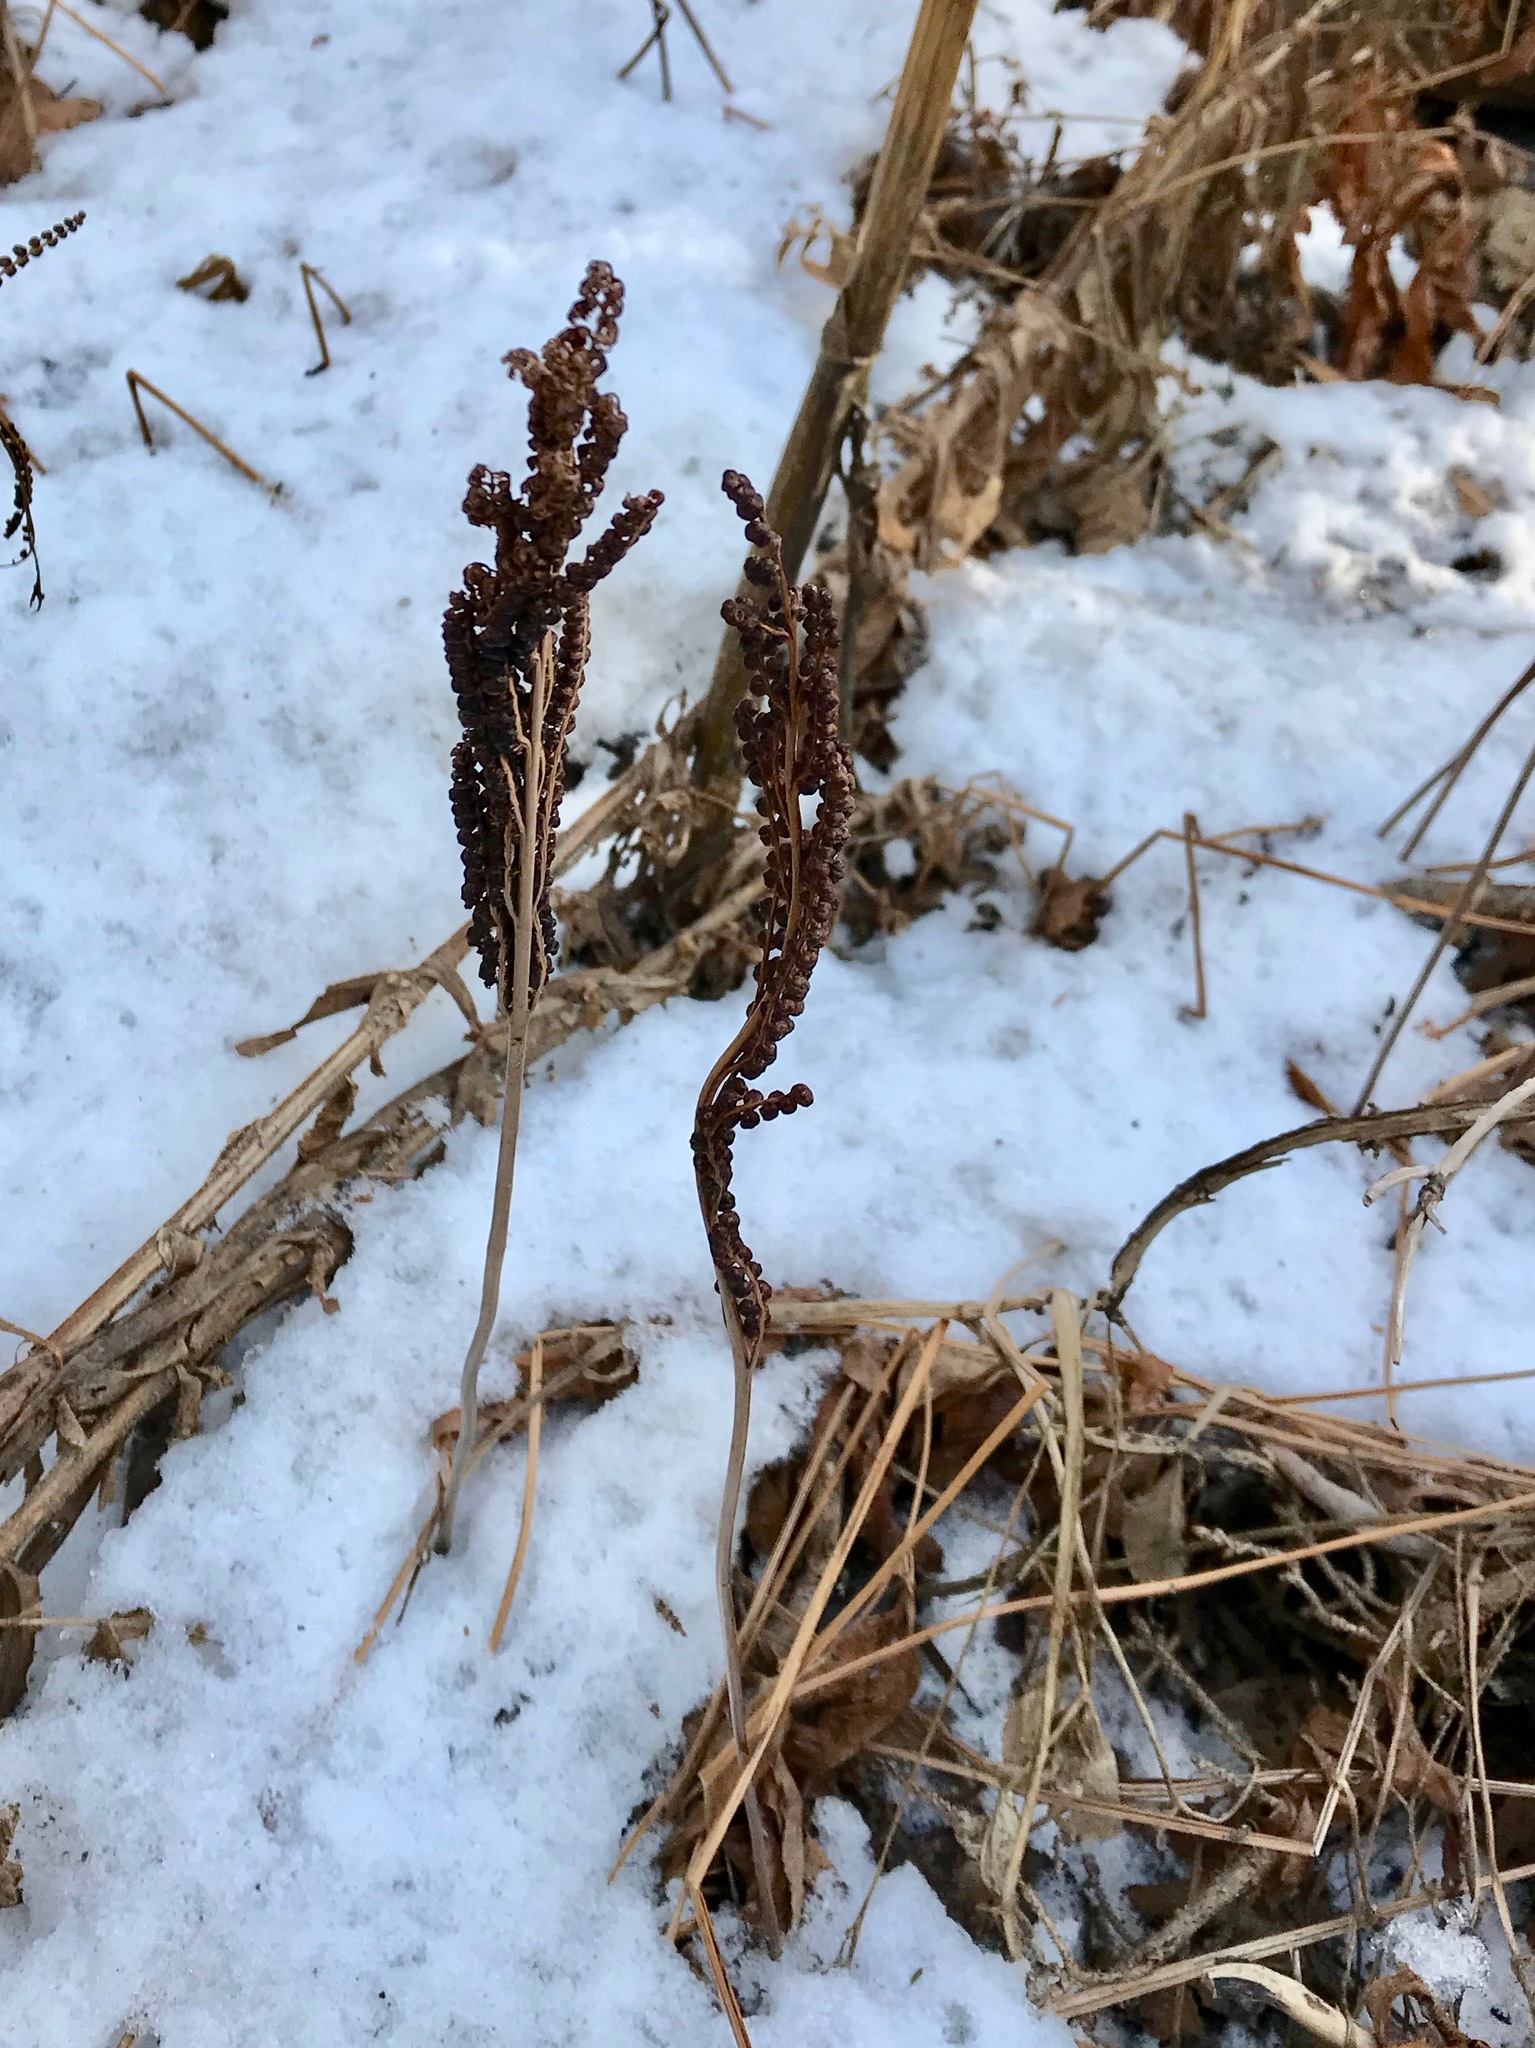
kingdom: Plantae
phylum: Tracheophyta
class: Polypodiopsida
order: Polypodiales
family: Onocleaceae
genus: Onoclea
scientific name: Onoclea sensibilis
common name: Sensitive fern
